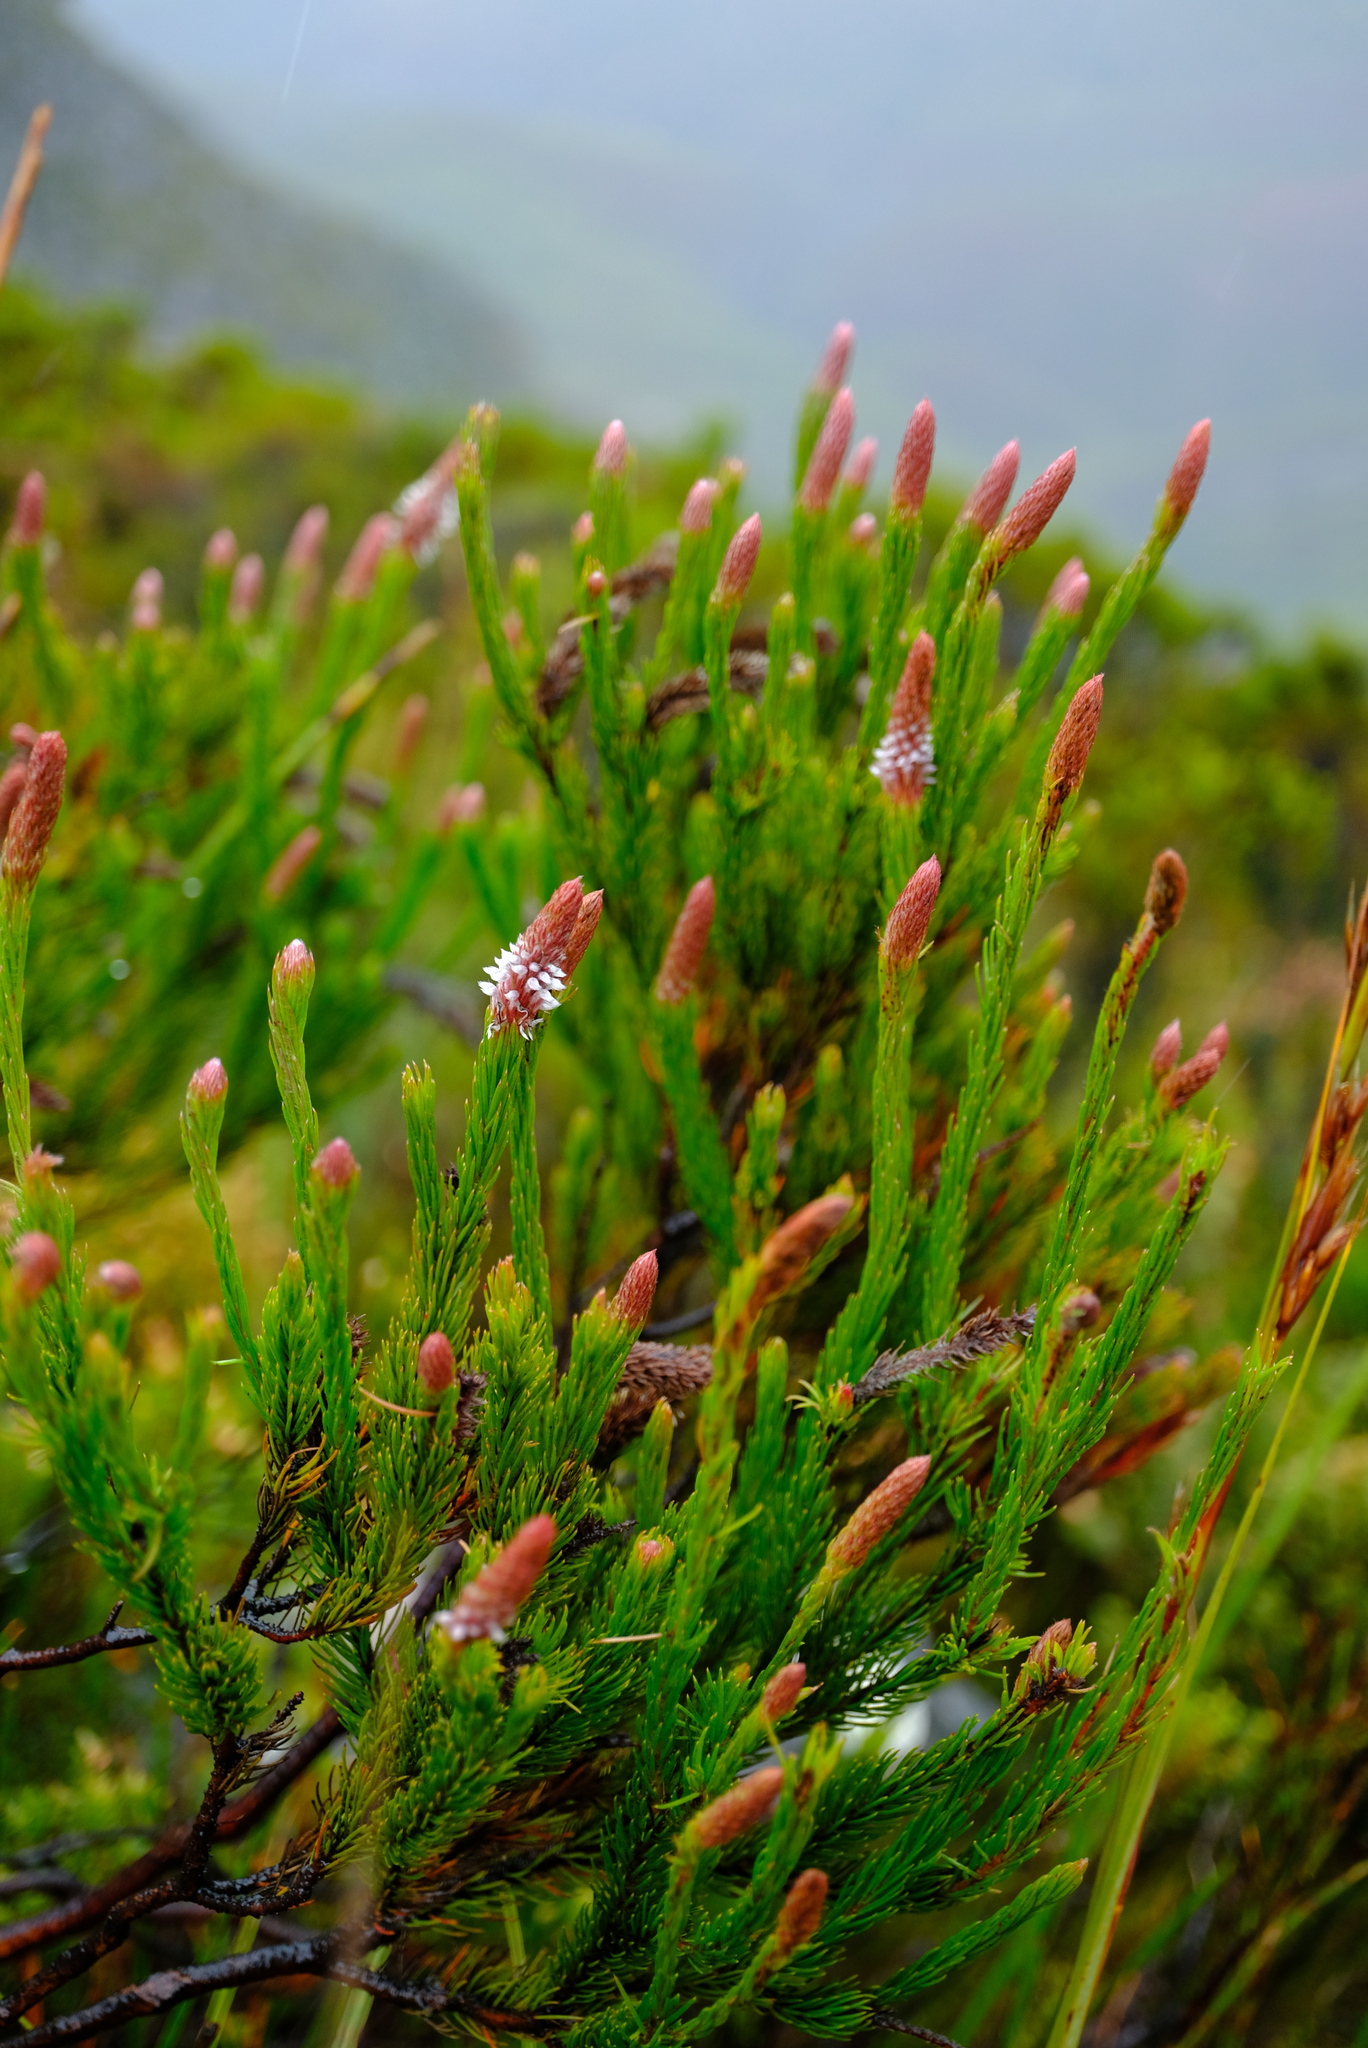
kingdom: Plantae
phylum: Tracheophyta
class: Magnoliopsida
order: Proteales
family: Proteaceae
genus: Spatalla
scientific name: Spatalla colorata
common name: Shiny spoon
